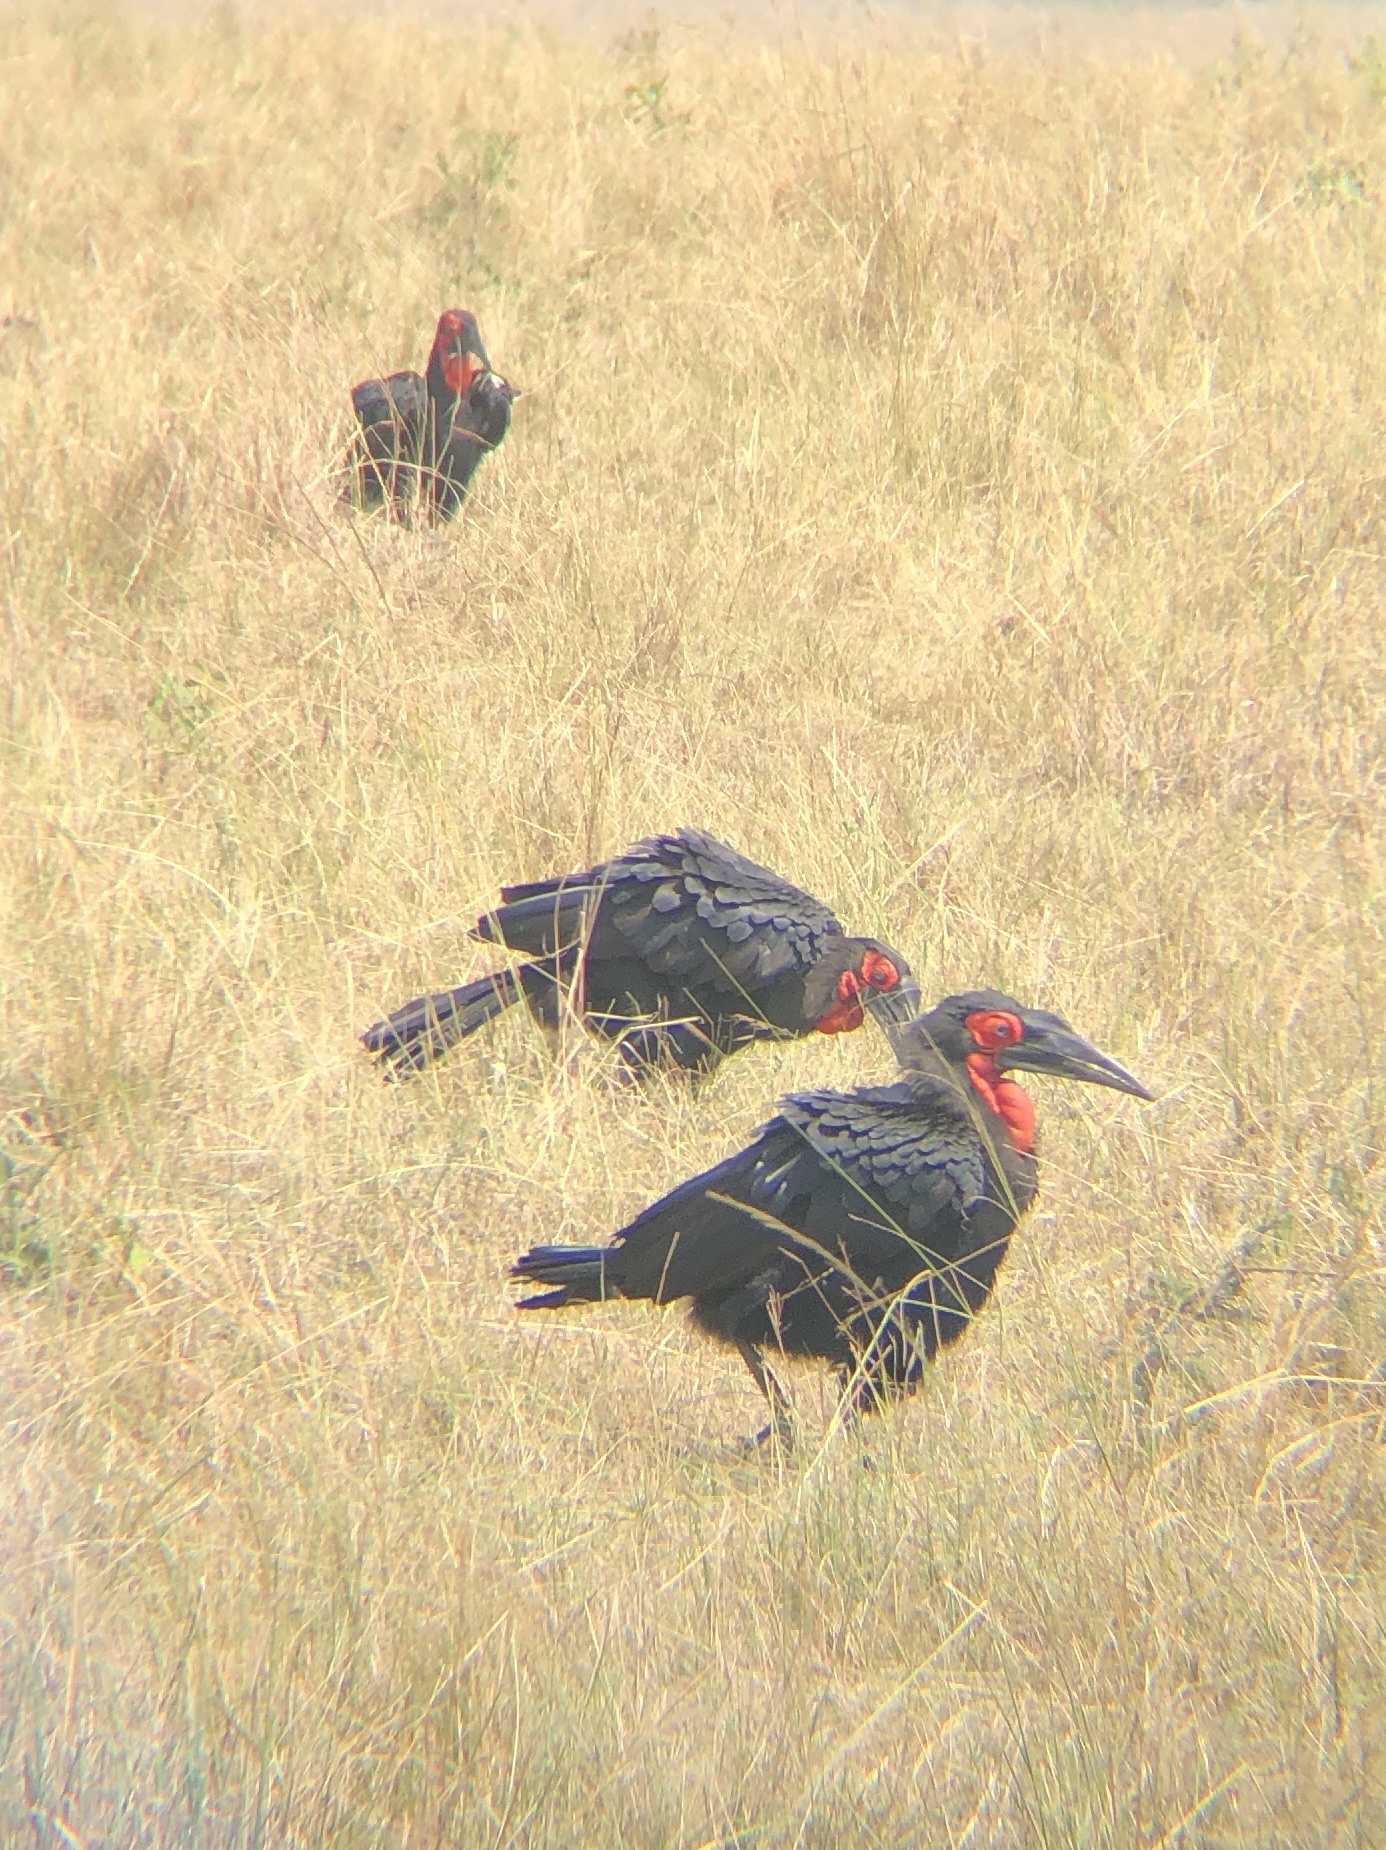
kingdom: Animalia
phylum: Chordata
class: Aves
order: Bucerotiformes
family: Bucorvidae
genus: Bucorvus
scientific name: Bucorvus leadbeateri
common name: Southern ground-hornbill
